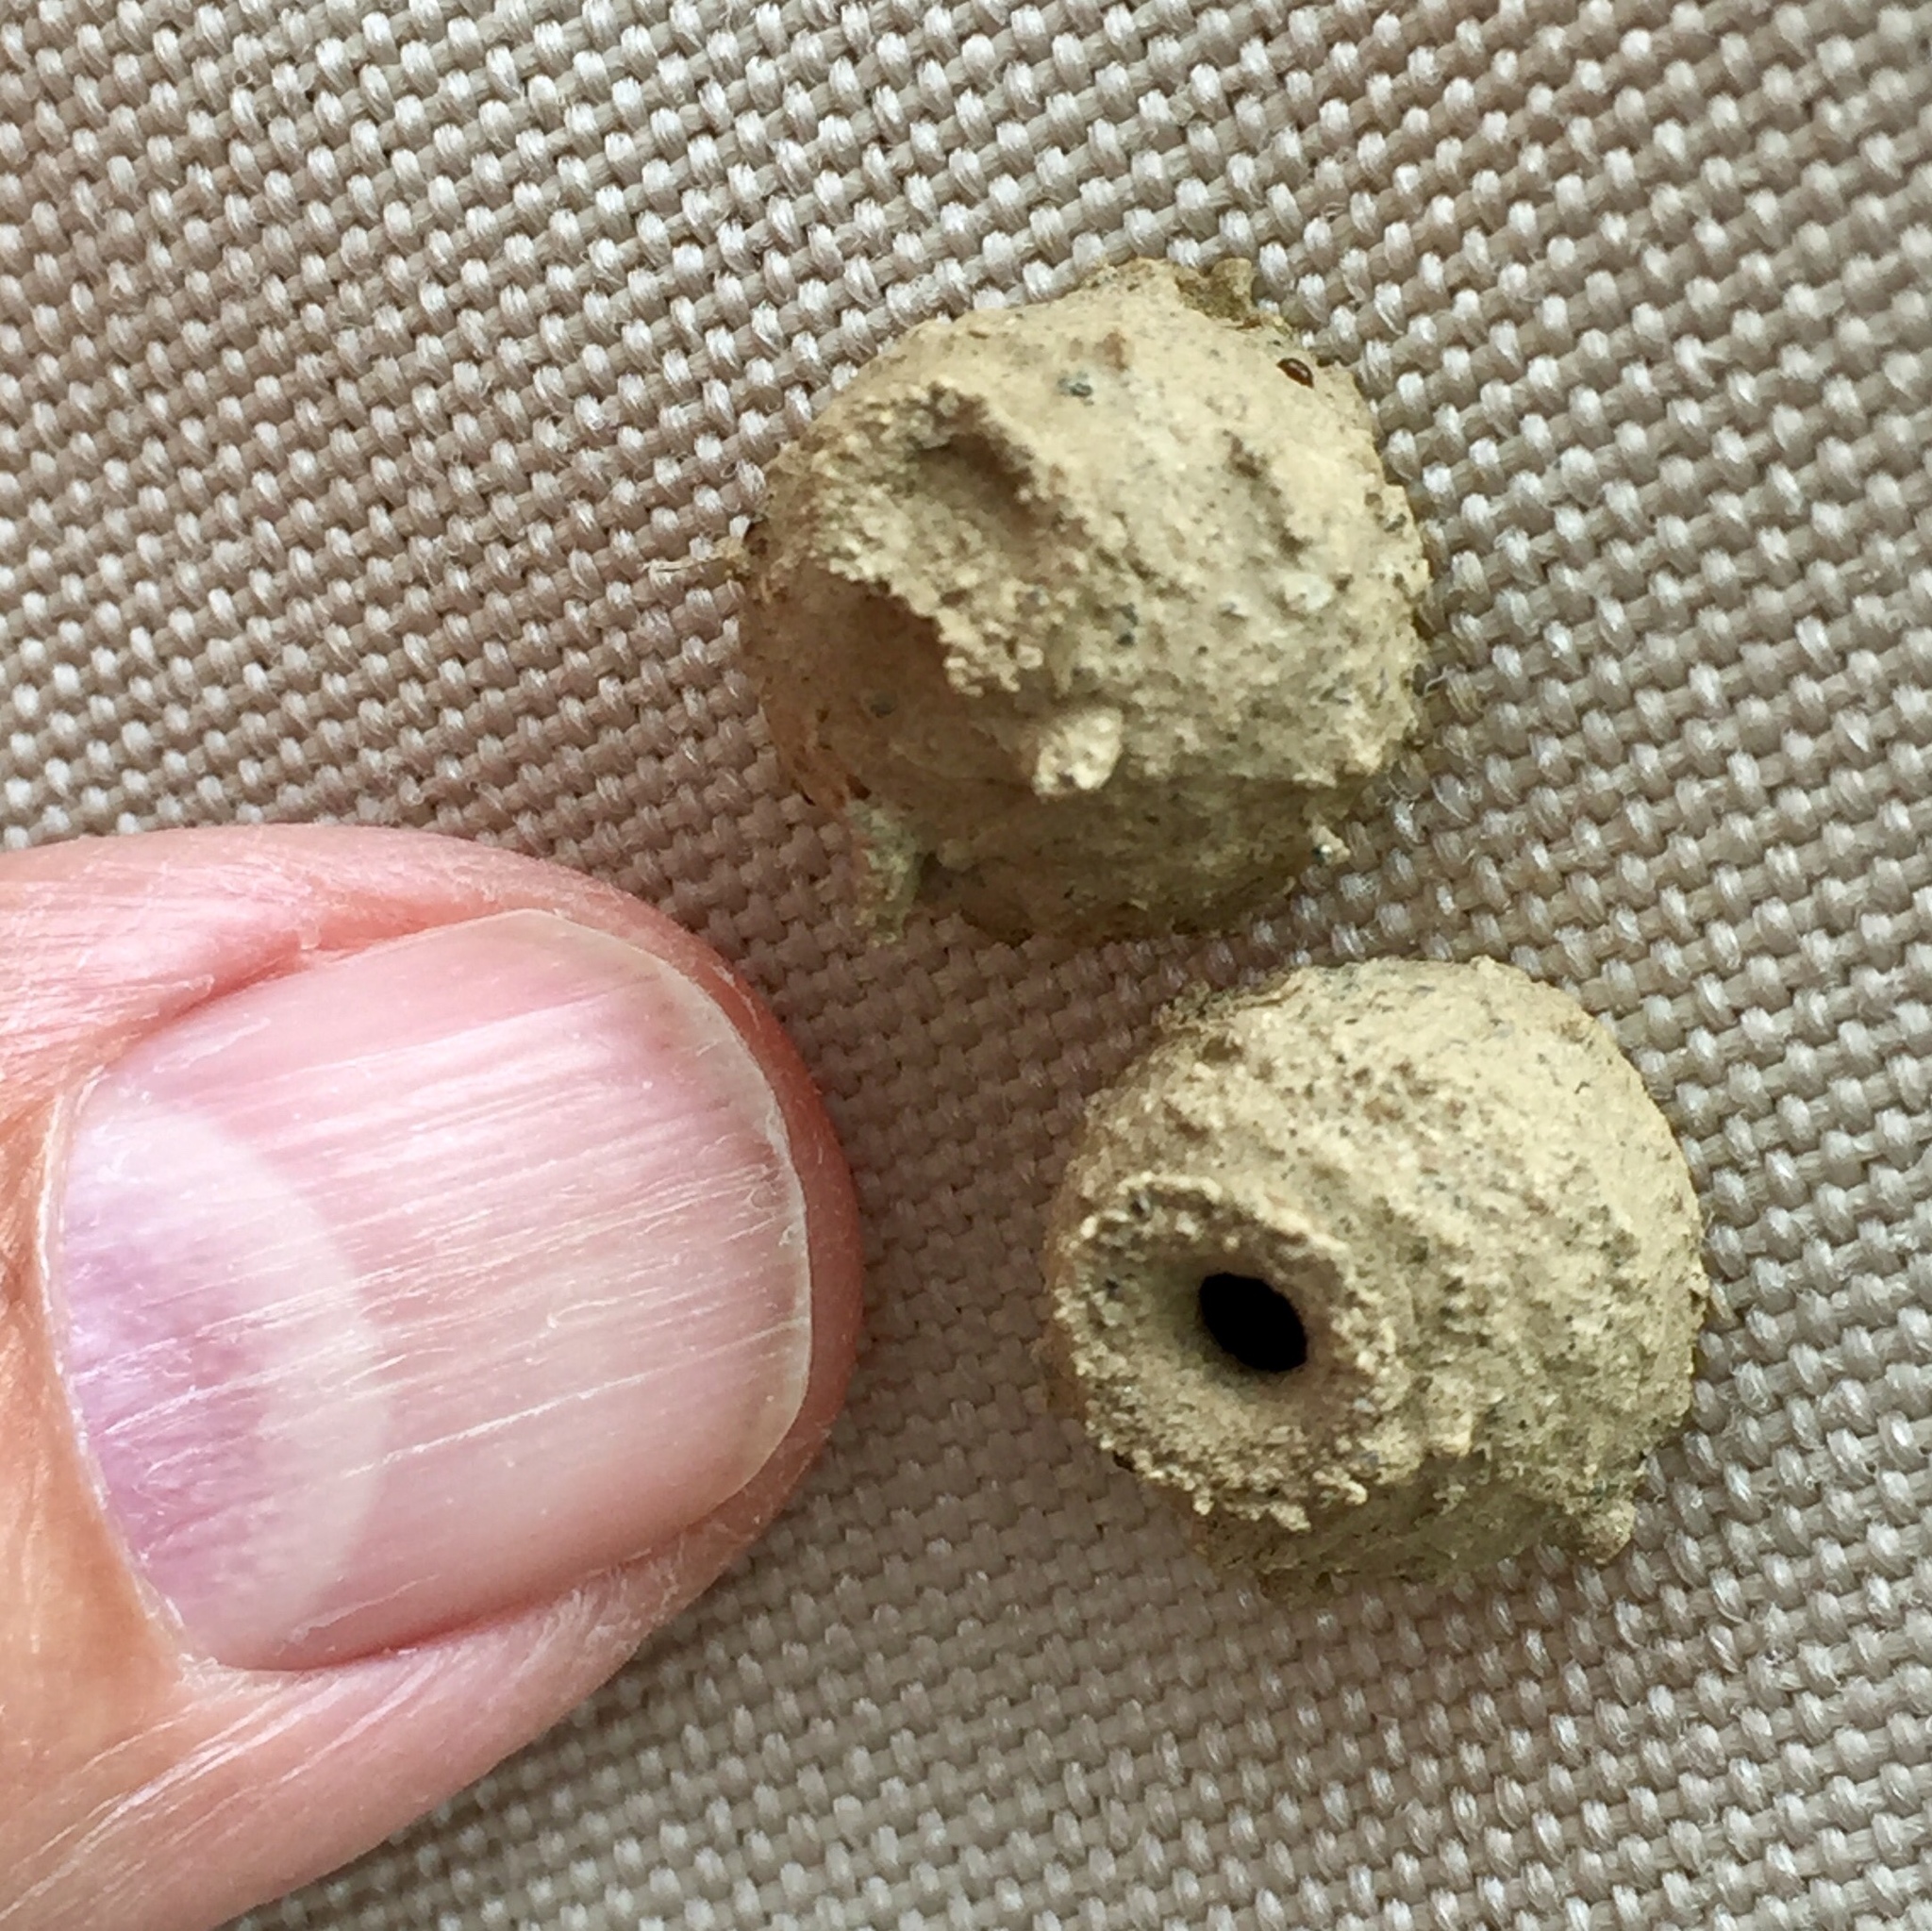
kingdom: Animalia
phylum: Arthropoda
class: Insecta
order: Hymenoptera
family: Vespidae
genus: Eumenes
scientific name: Eumenes
